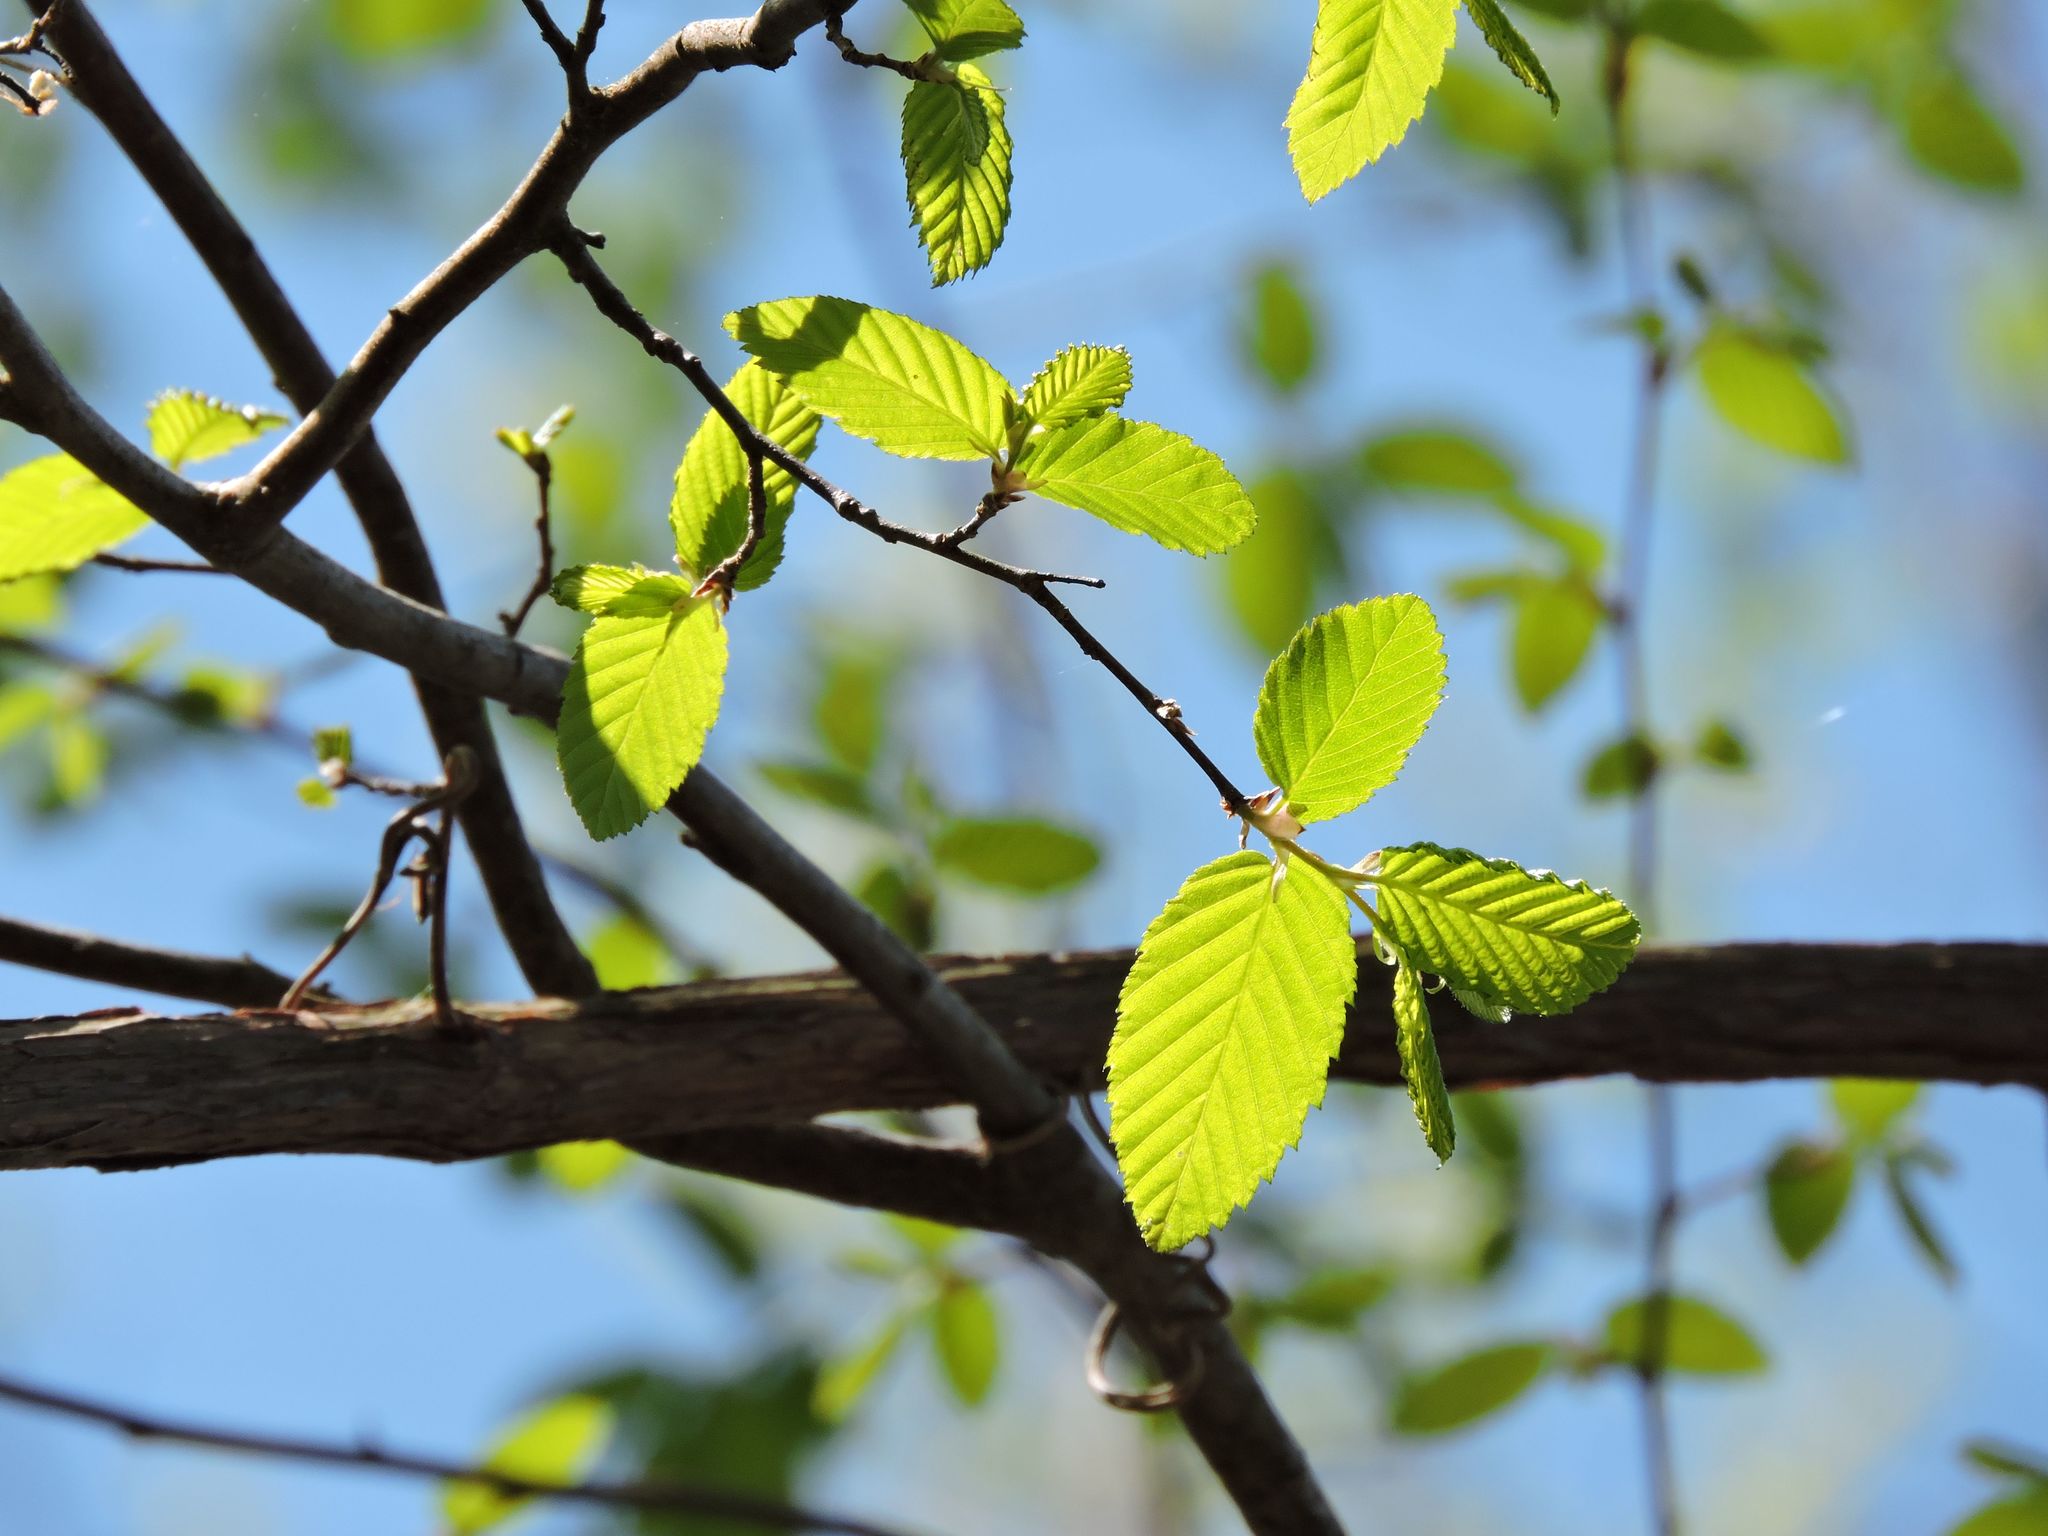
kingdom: Plantae
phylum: Tracheophyta
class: Magnoliopsida
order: Fagales
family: Betulaceae
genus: Carpinus
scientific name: Carpinus caroliniana
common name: American hornbeam
